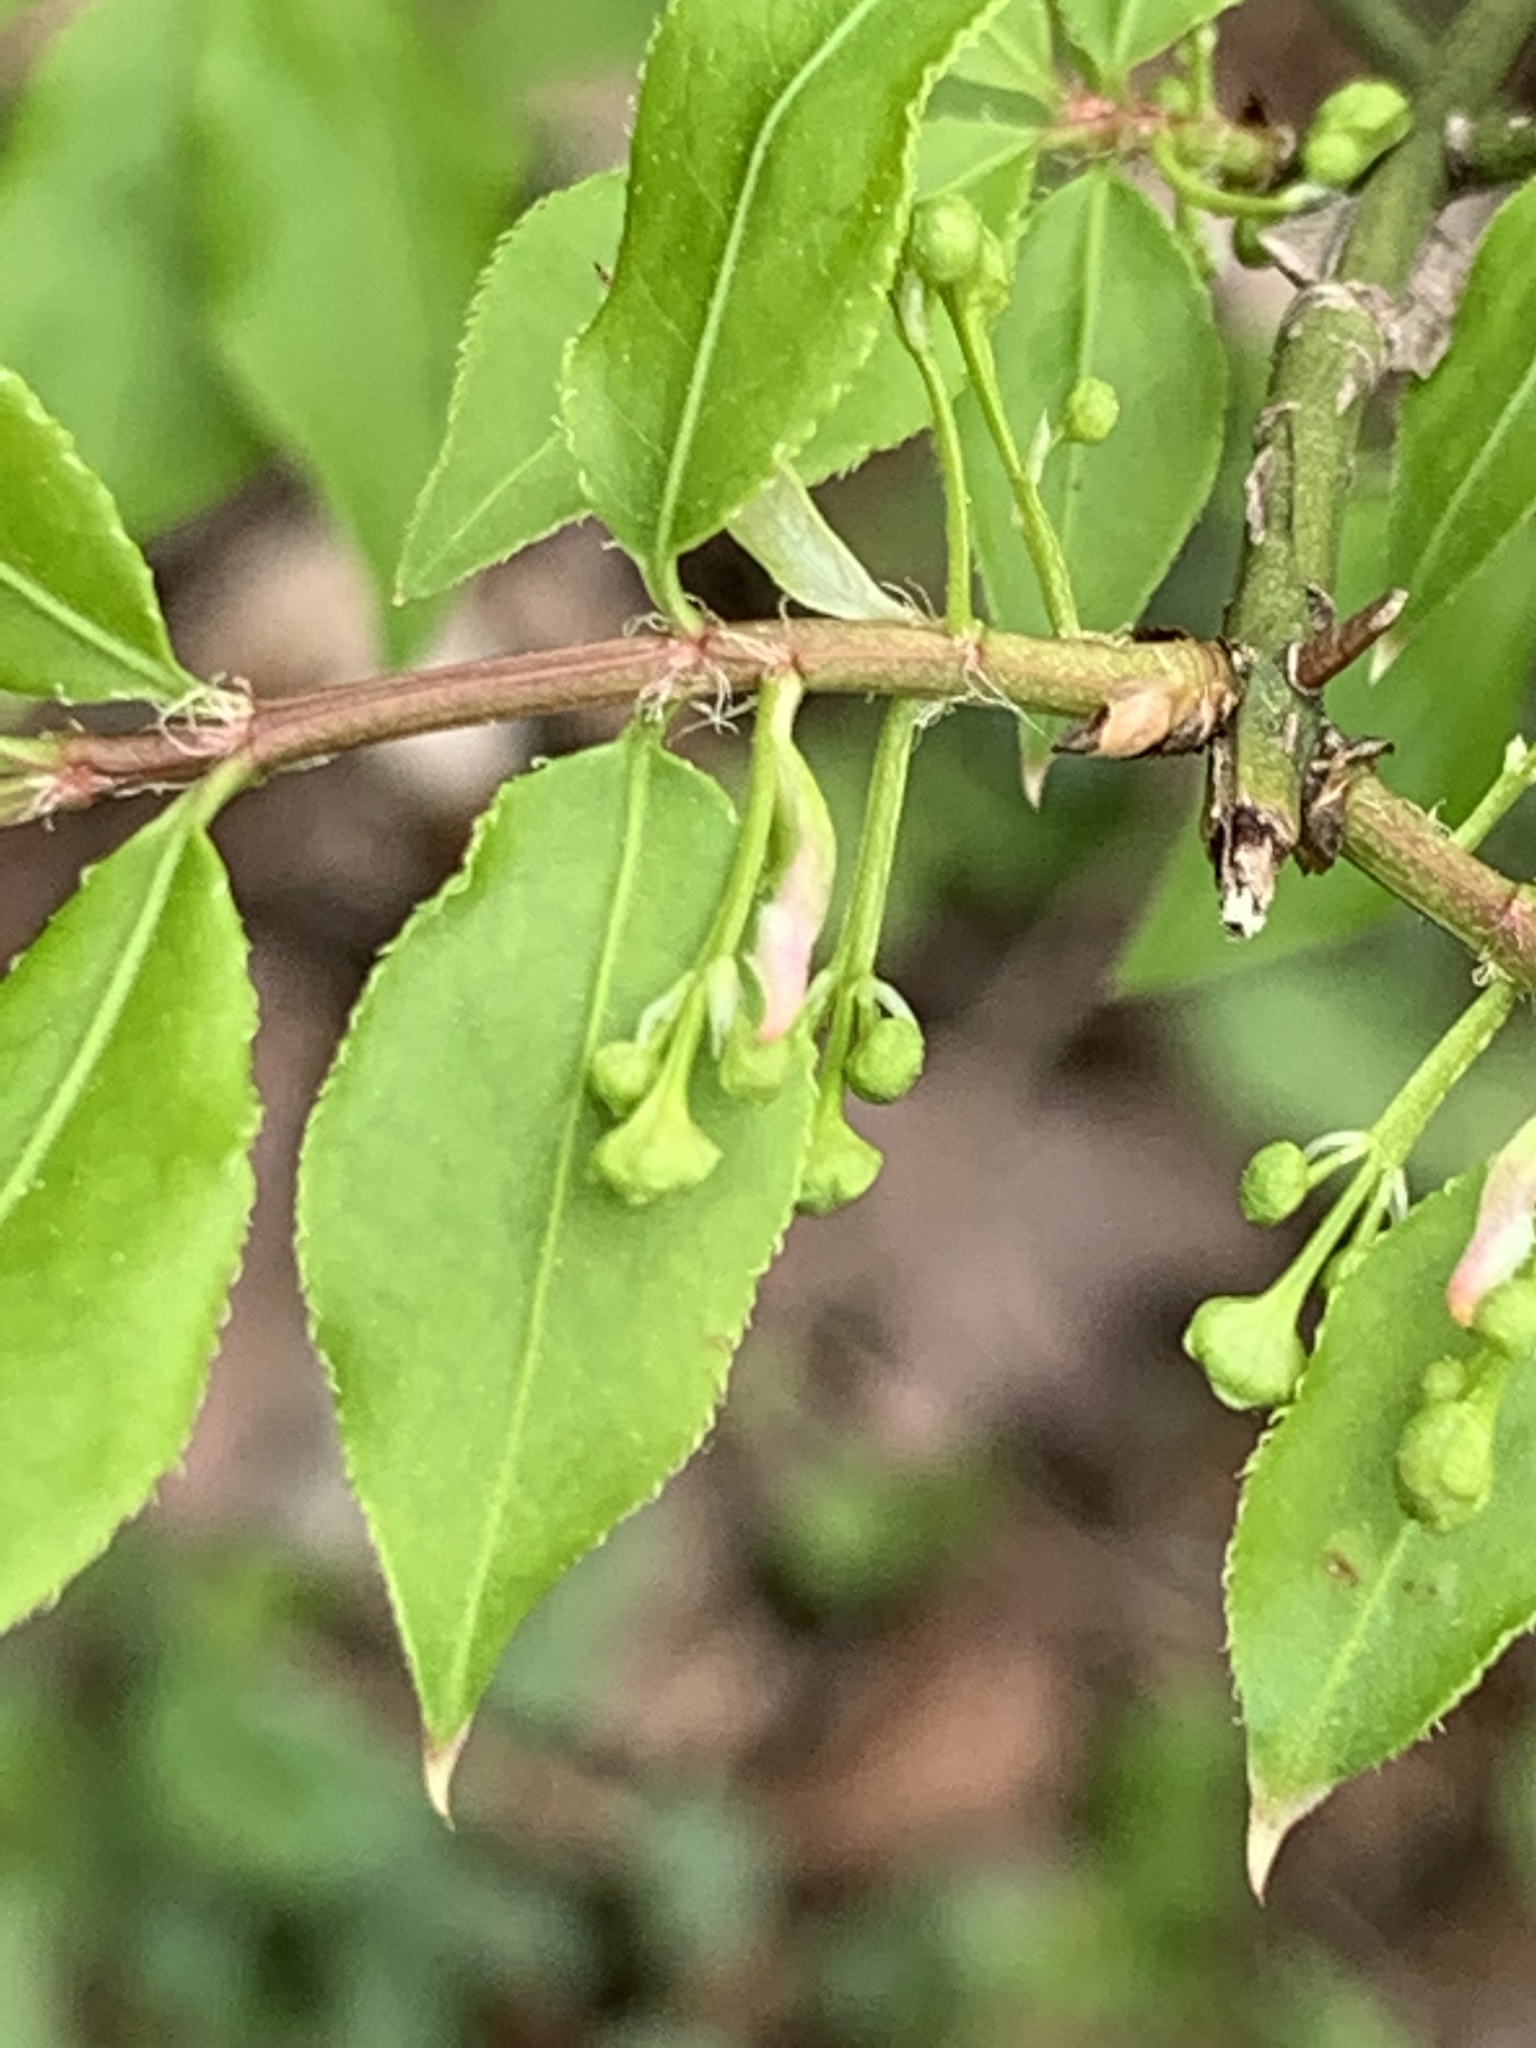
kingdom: Plantae
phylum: Tracheophyta
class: Magnoliopsida
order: Celastrales
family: Celastraceae
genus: Euonymus
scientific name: Euonymus alatus
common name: Winged euonymus
